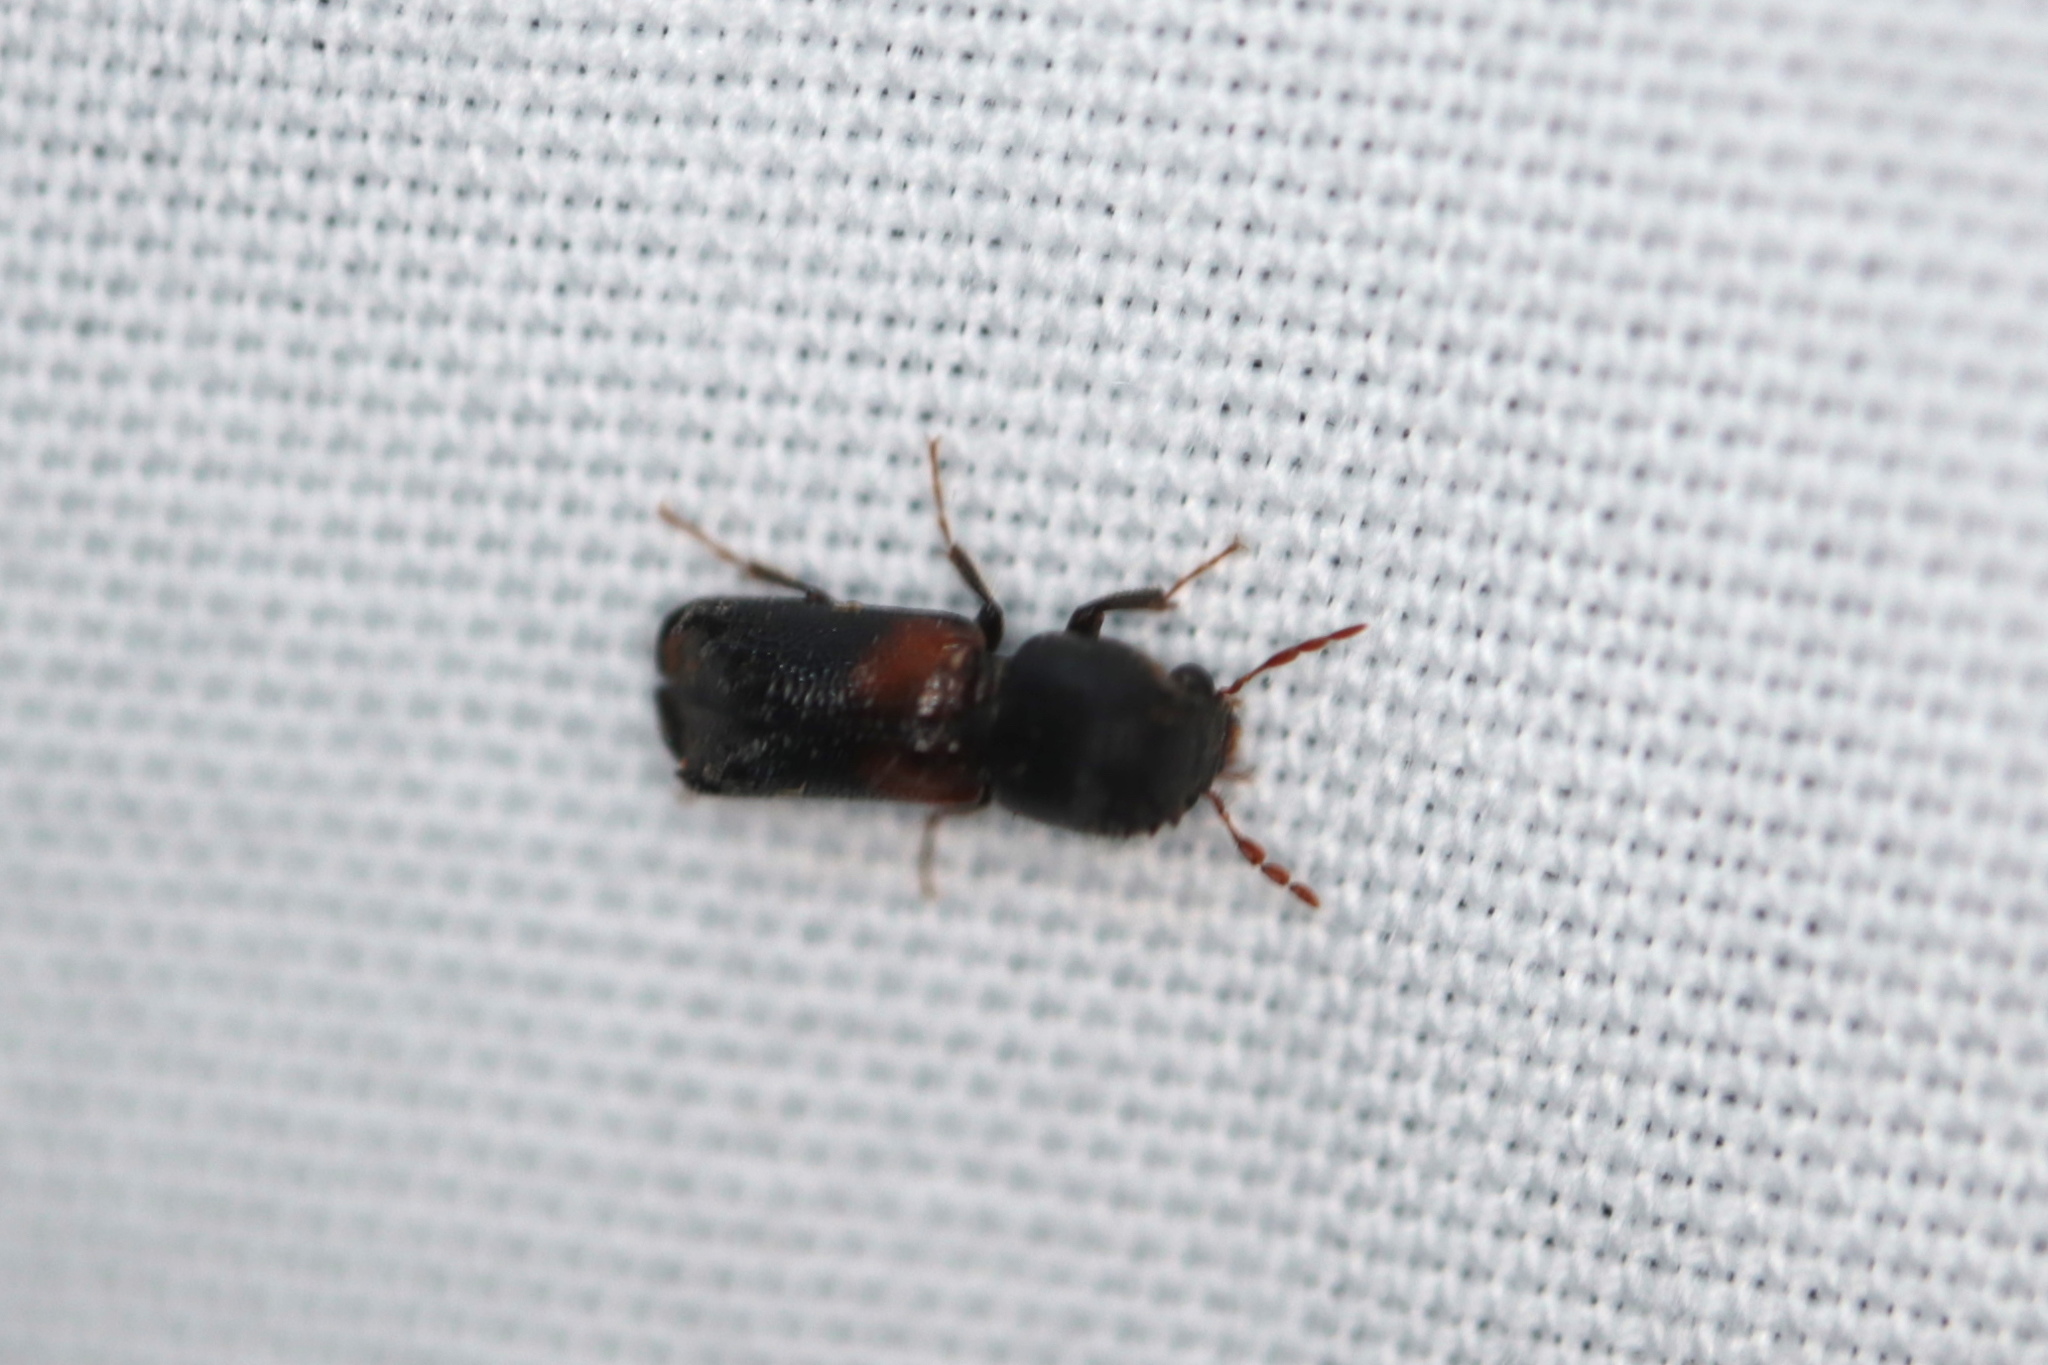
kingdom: Animalia
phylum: Arthropoda
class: Insecta
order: Coleoptera
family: Bostrichidae
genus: Xylobiops
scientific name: Xylobiops basilaris
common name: Red-shouldered bostrichid
